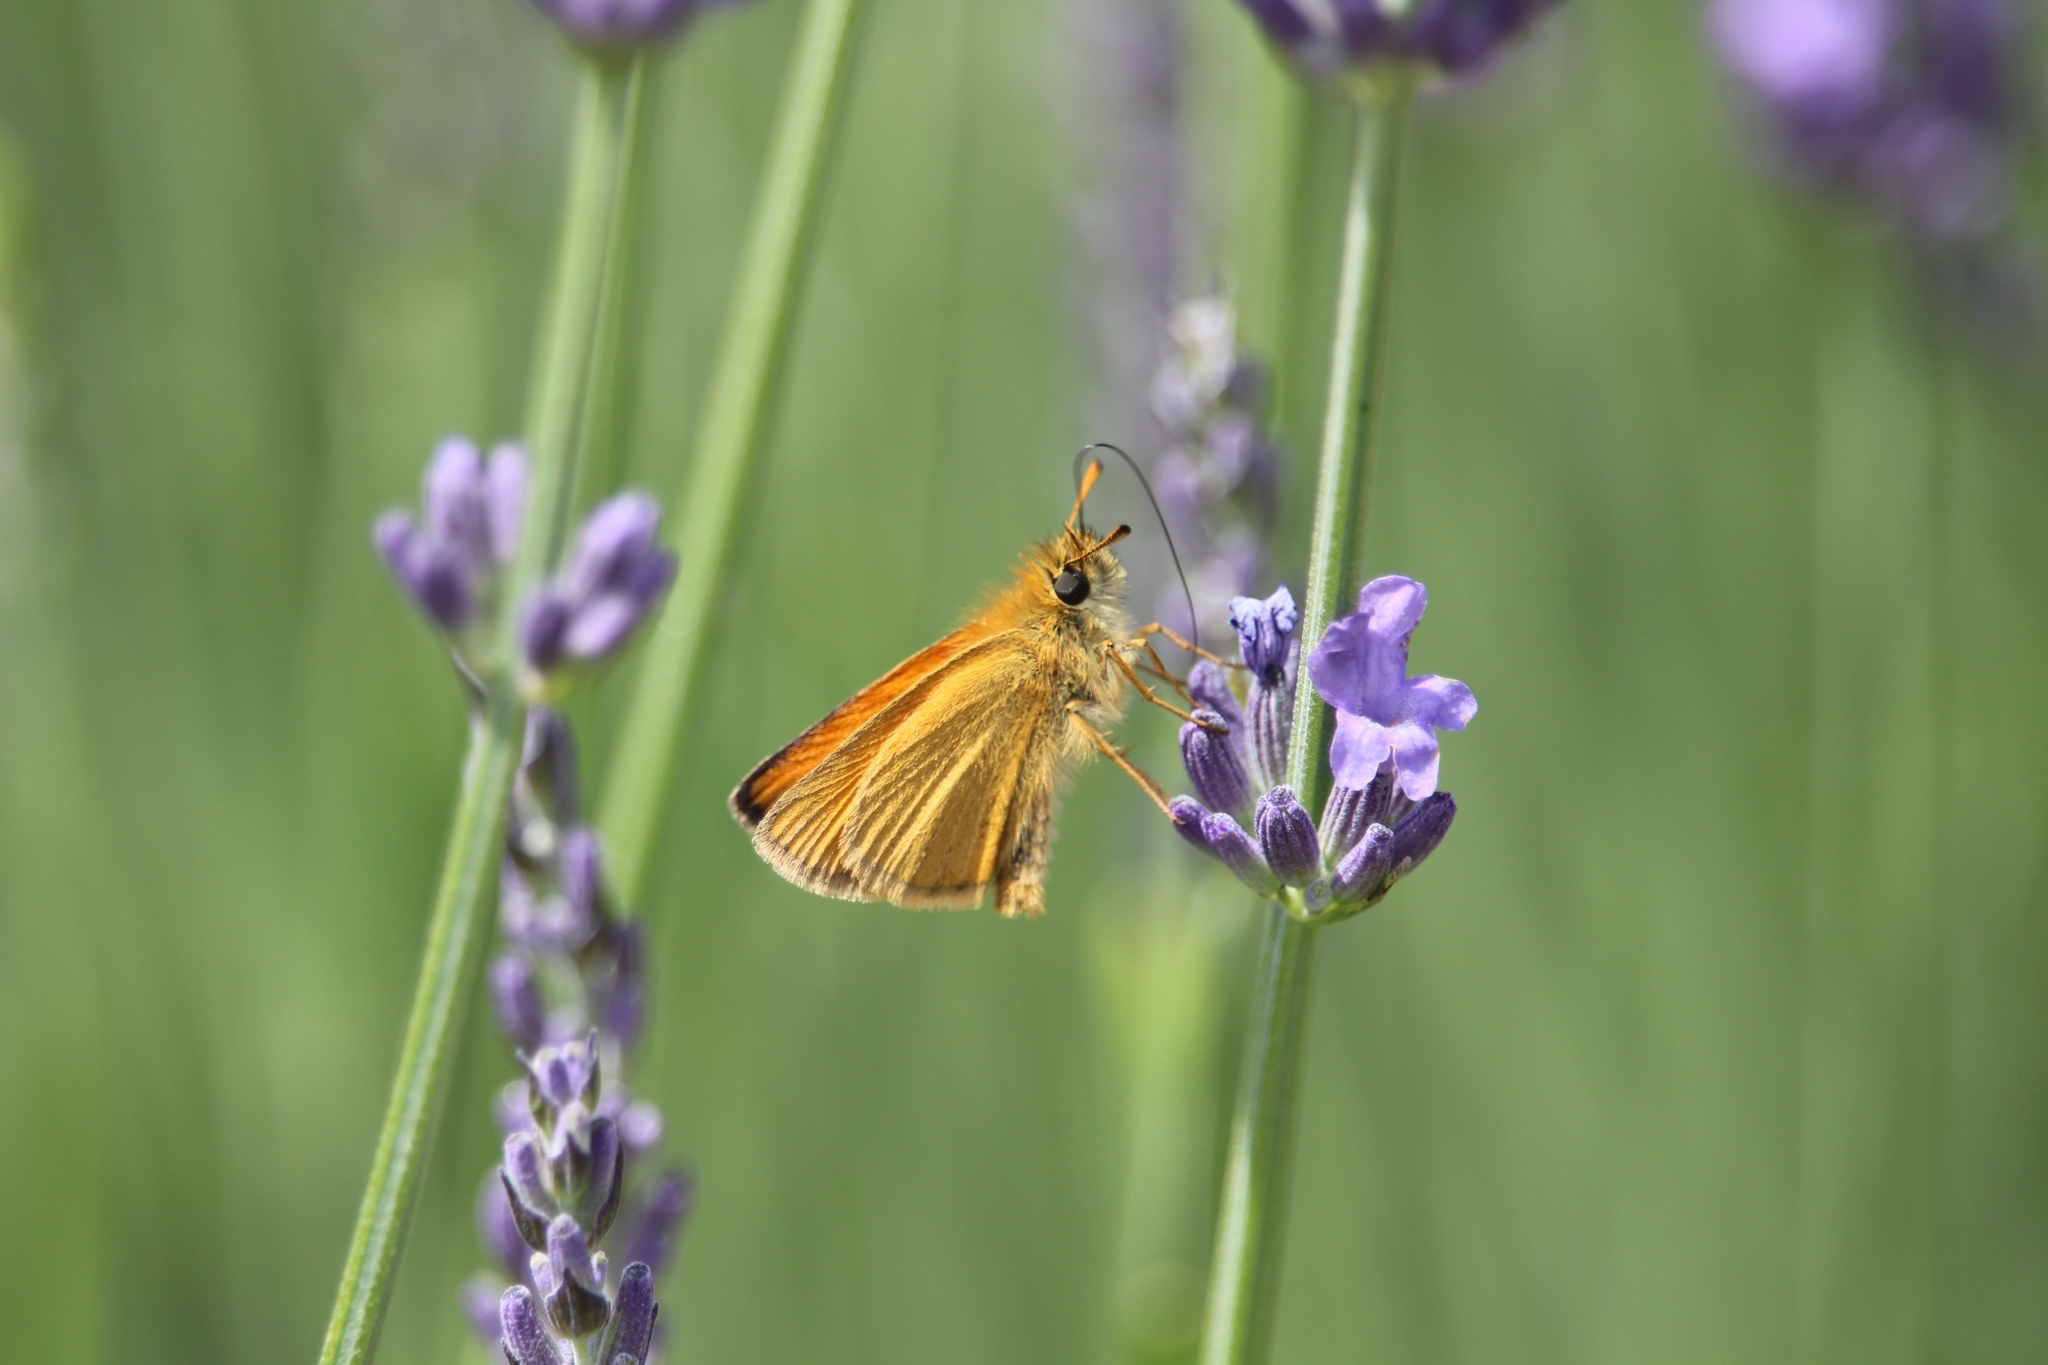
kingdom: Animalia
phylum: Arthropoda
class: Insecta
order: Lepidoptera
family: Hesperiidae
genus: Thymelicus
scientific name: Thymelicus lineola
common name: Essex skipper
